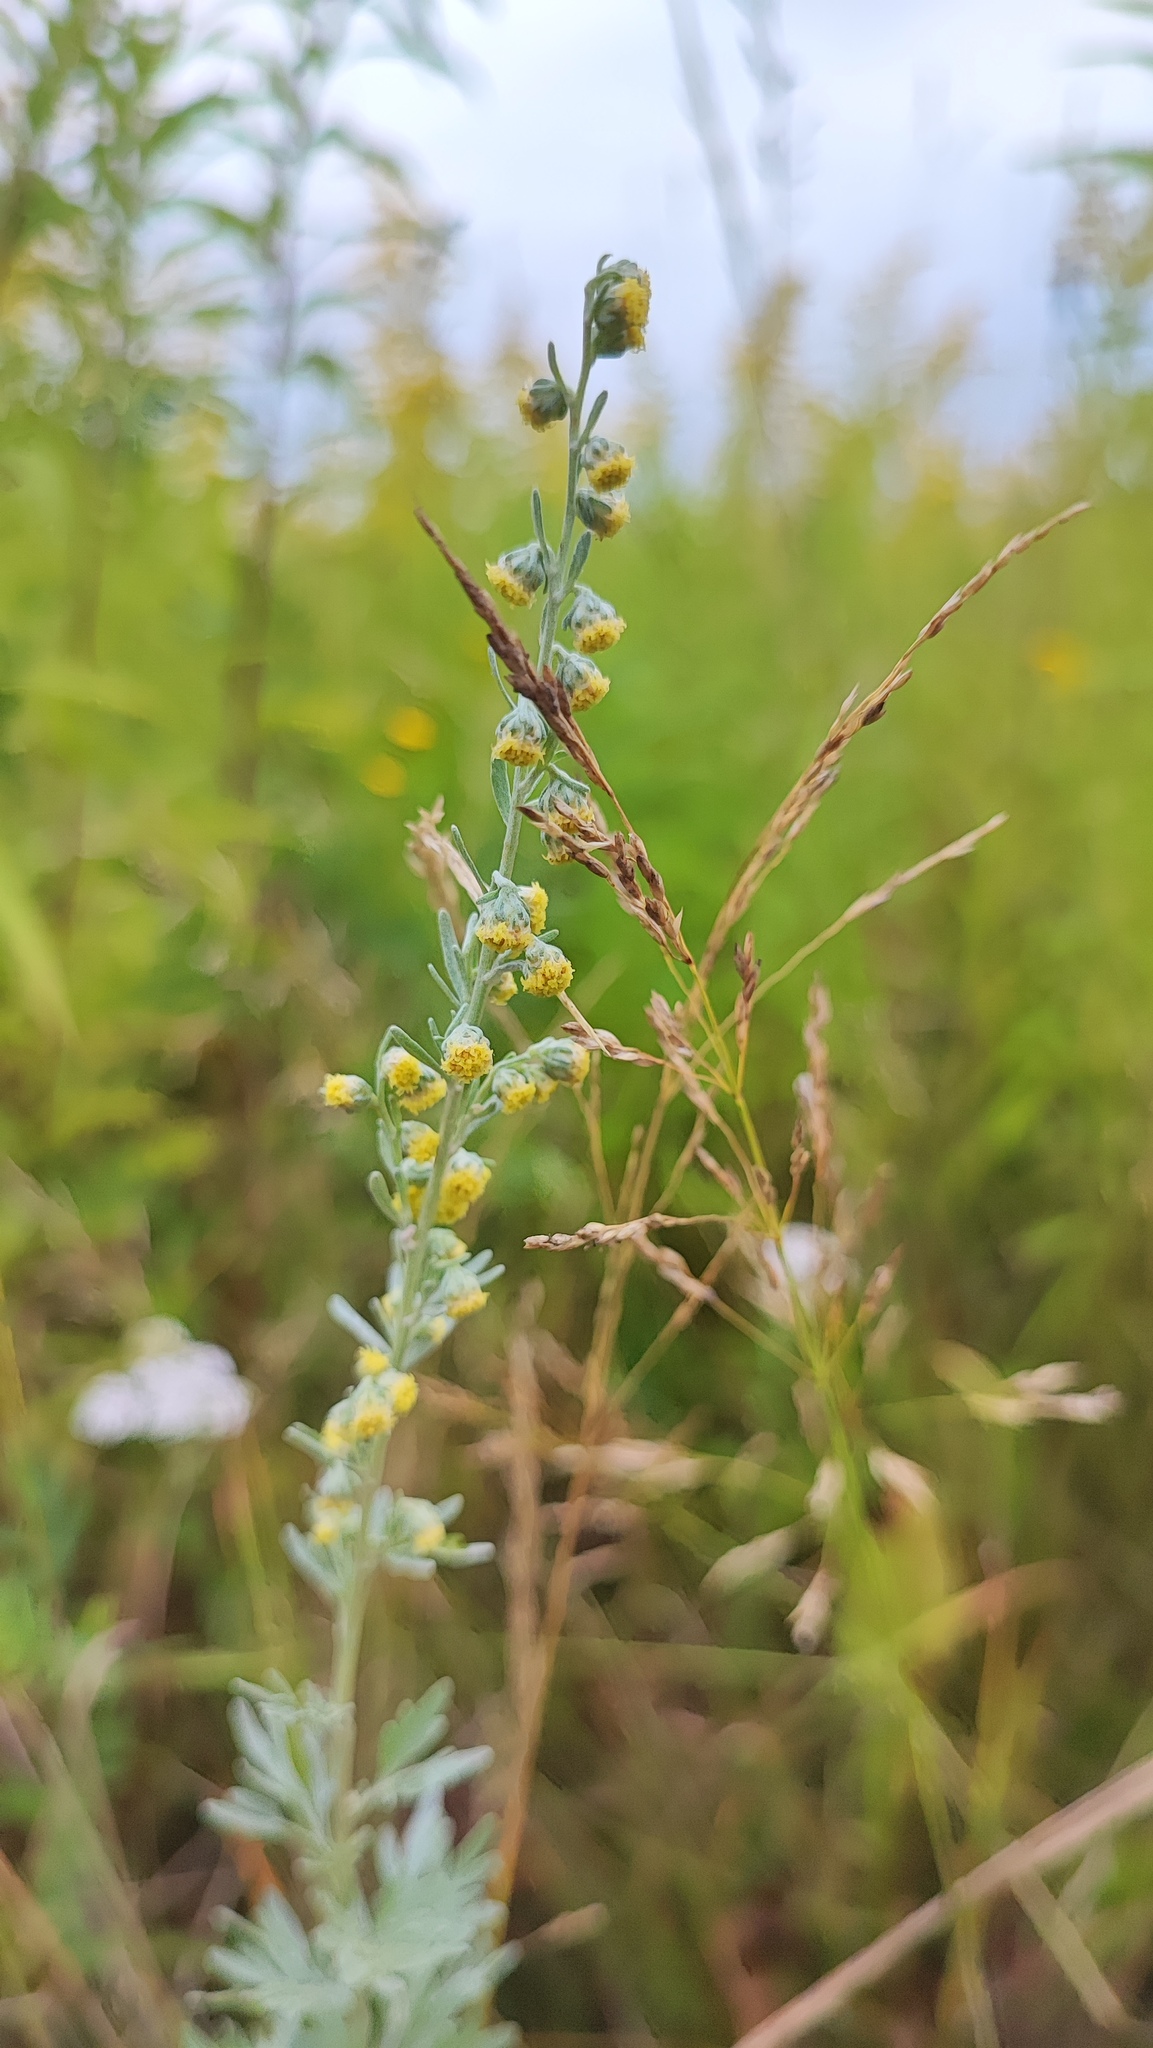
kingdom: Plantae
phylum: Tracheophyta
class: Magnoliopsida
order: Asterales
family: Asteraceae
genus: Artemisia
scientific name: Artemisia absinthium
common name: Wormwood
